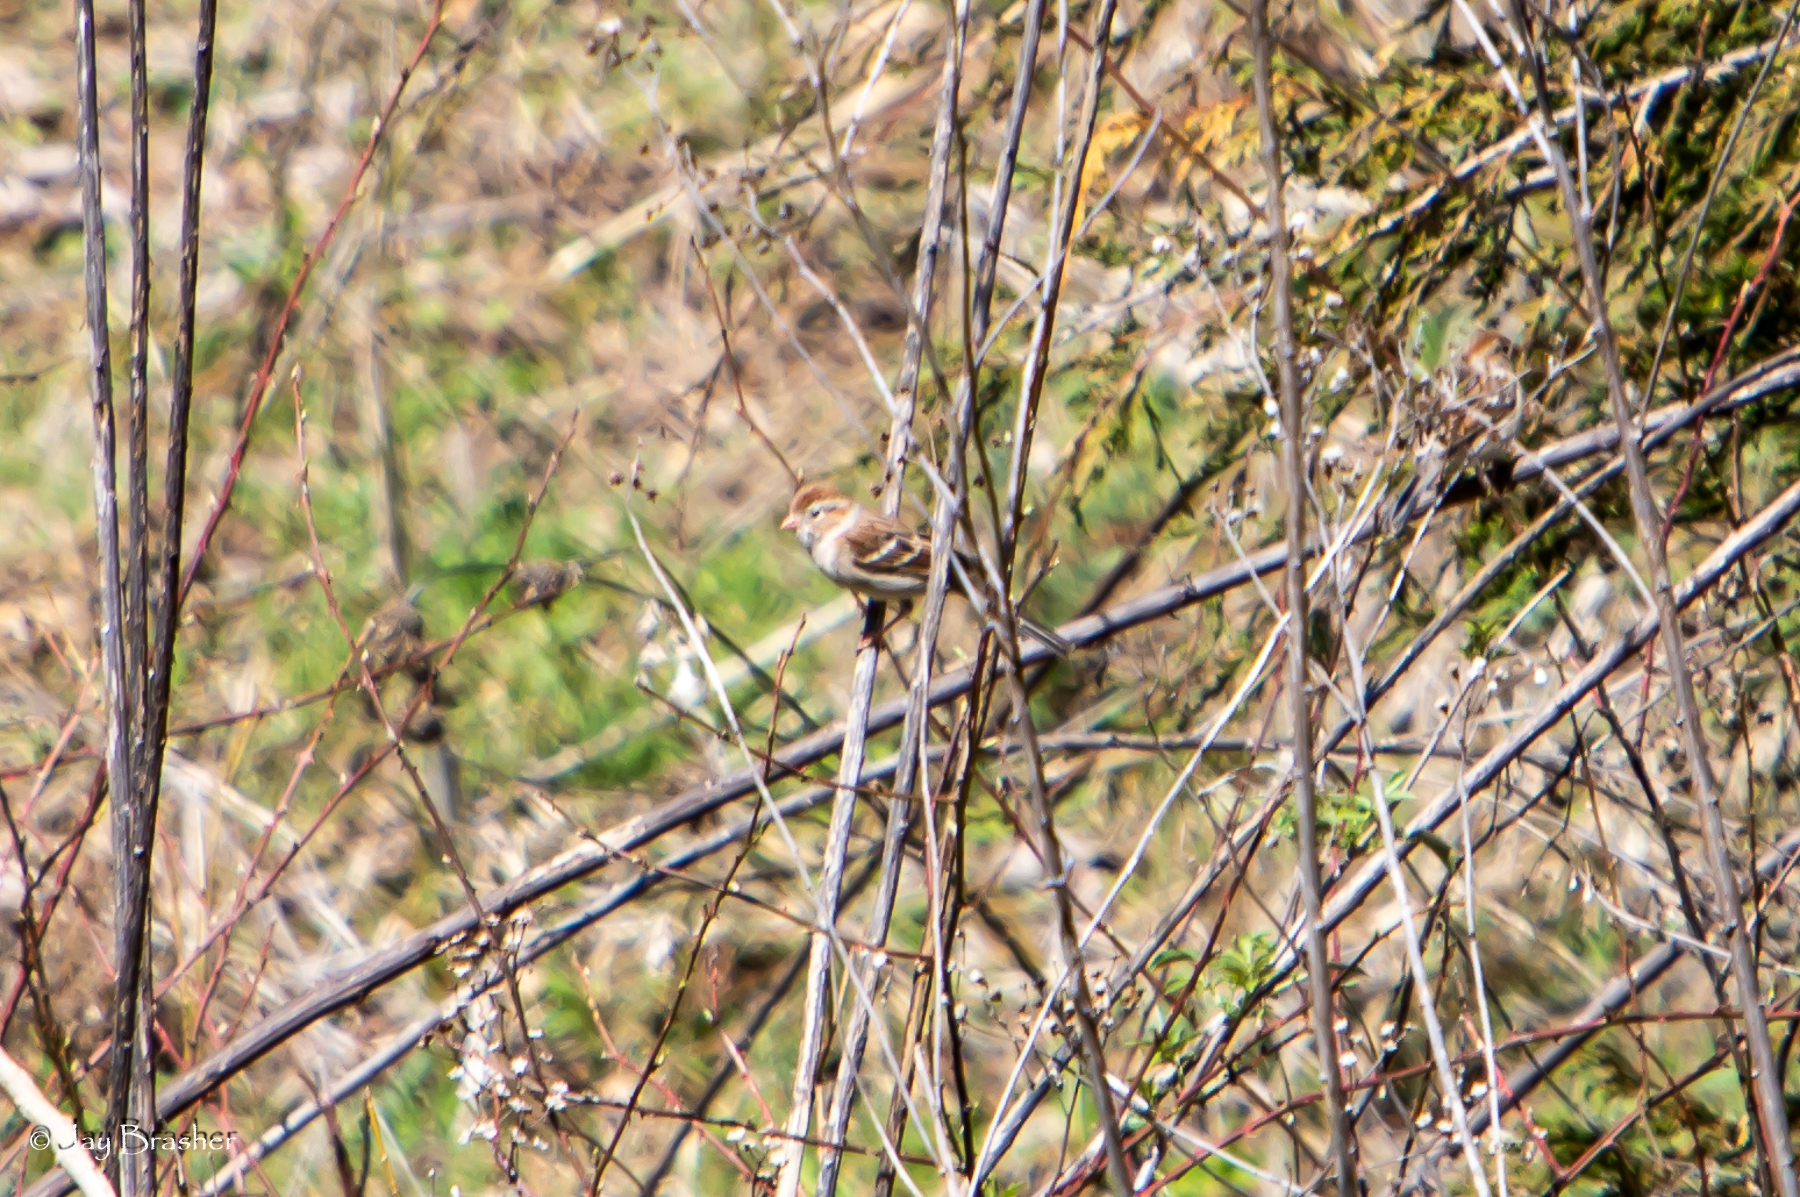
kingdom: Animalia
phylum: Chordata
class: Aves
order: Passeriformes
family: Passerellidae
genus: Spizella
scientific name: Spizella pusilla
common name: Field sparrow
